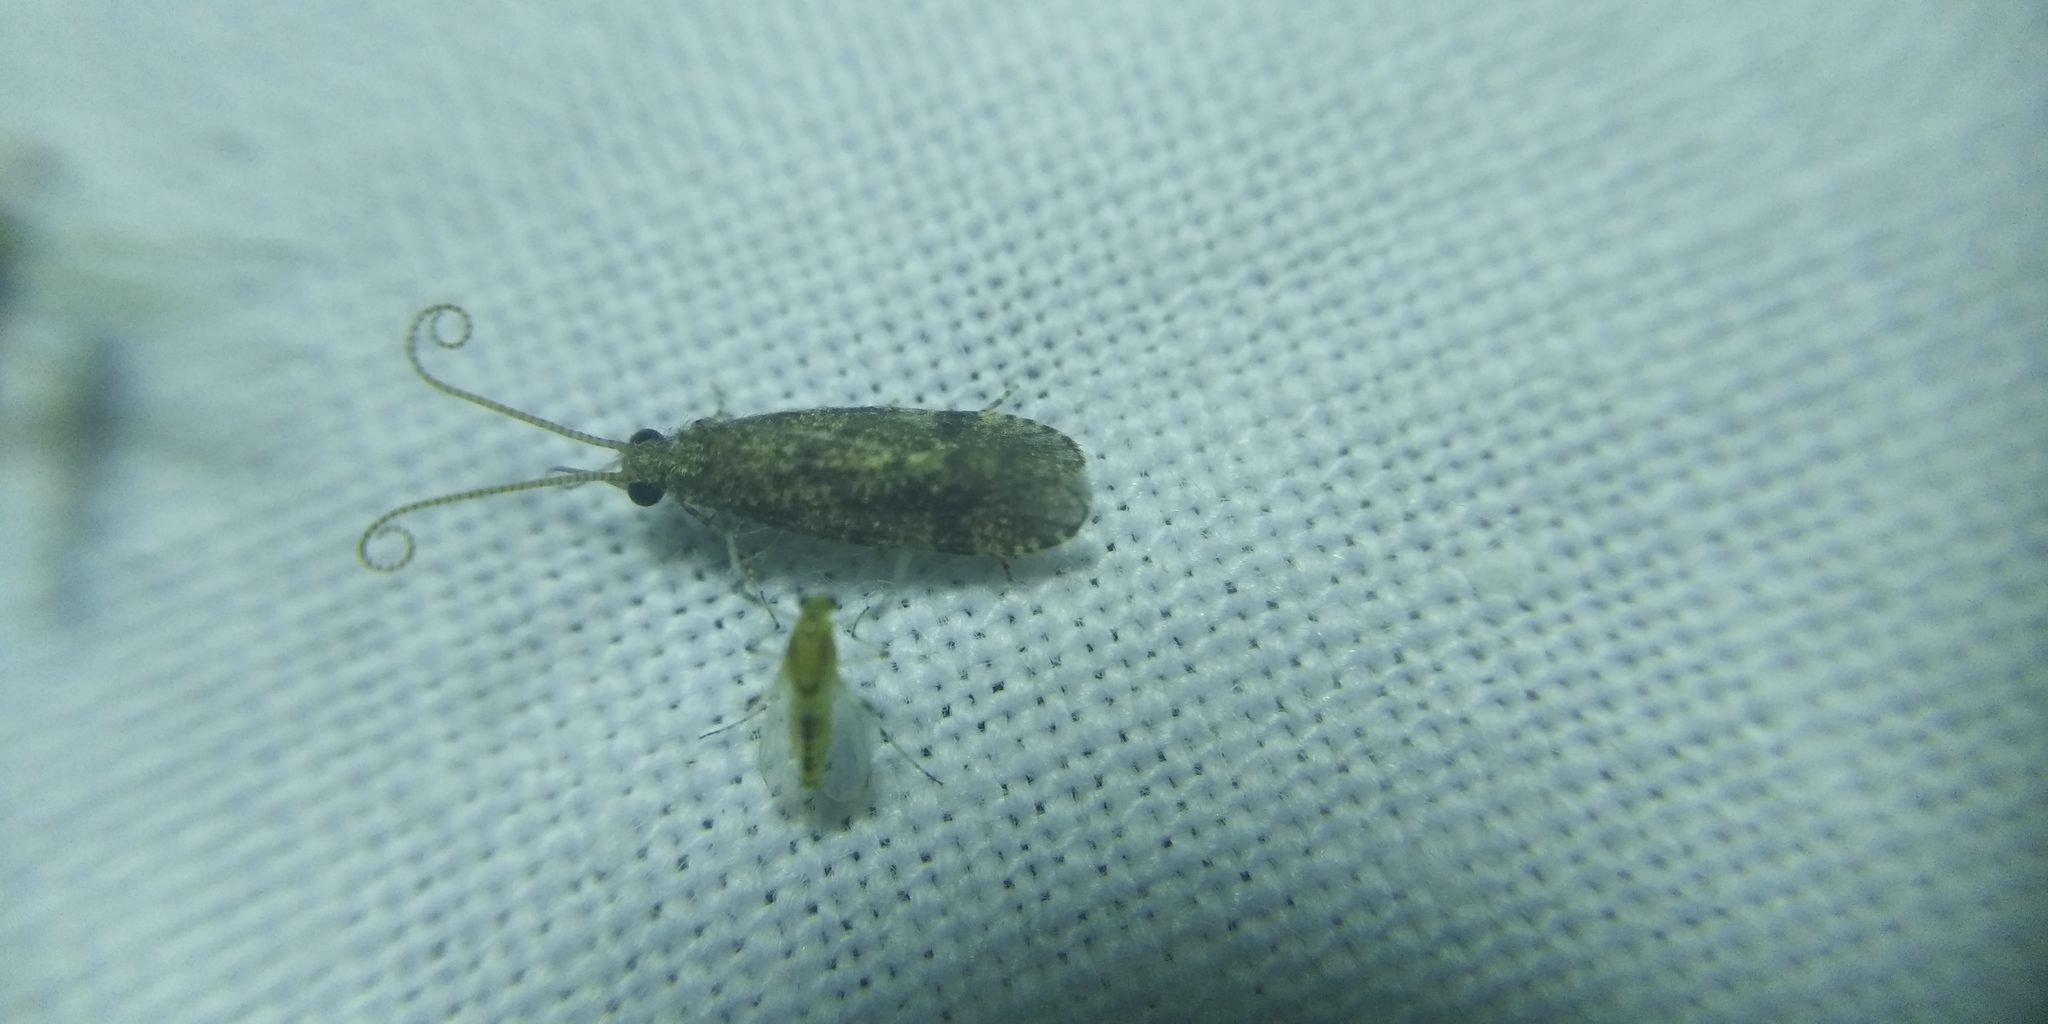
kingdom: Animalia
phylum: Arthropoda
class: Insecta
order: Trichoptera
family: Ecnomidae
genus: Ecnomus
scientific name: Ecnomus tenellus
